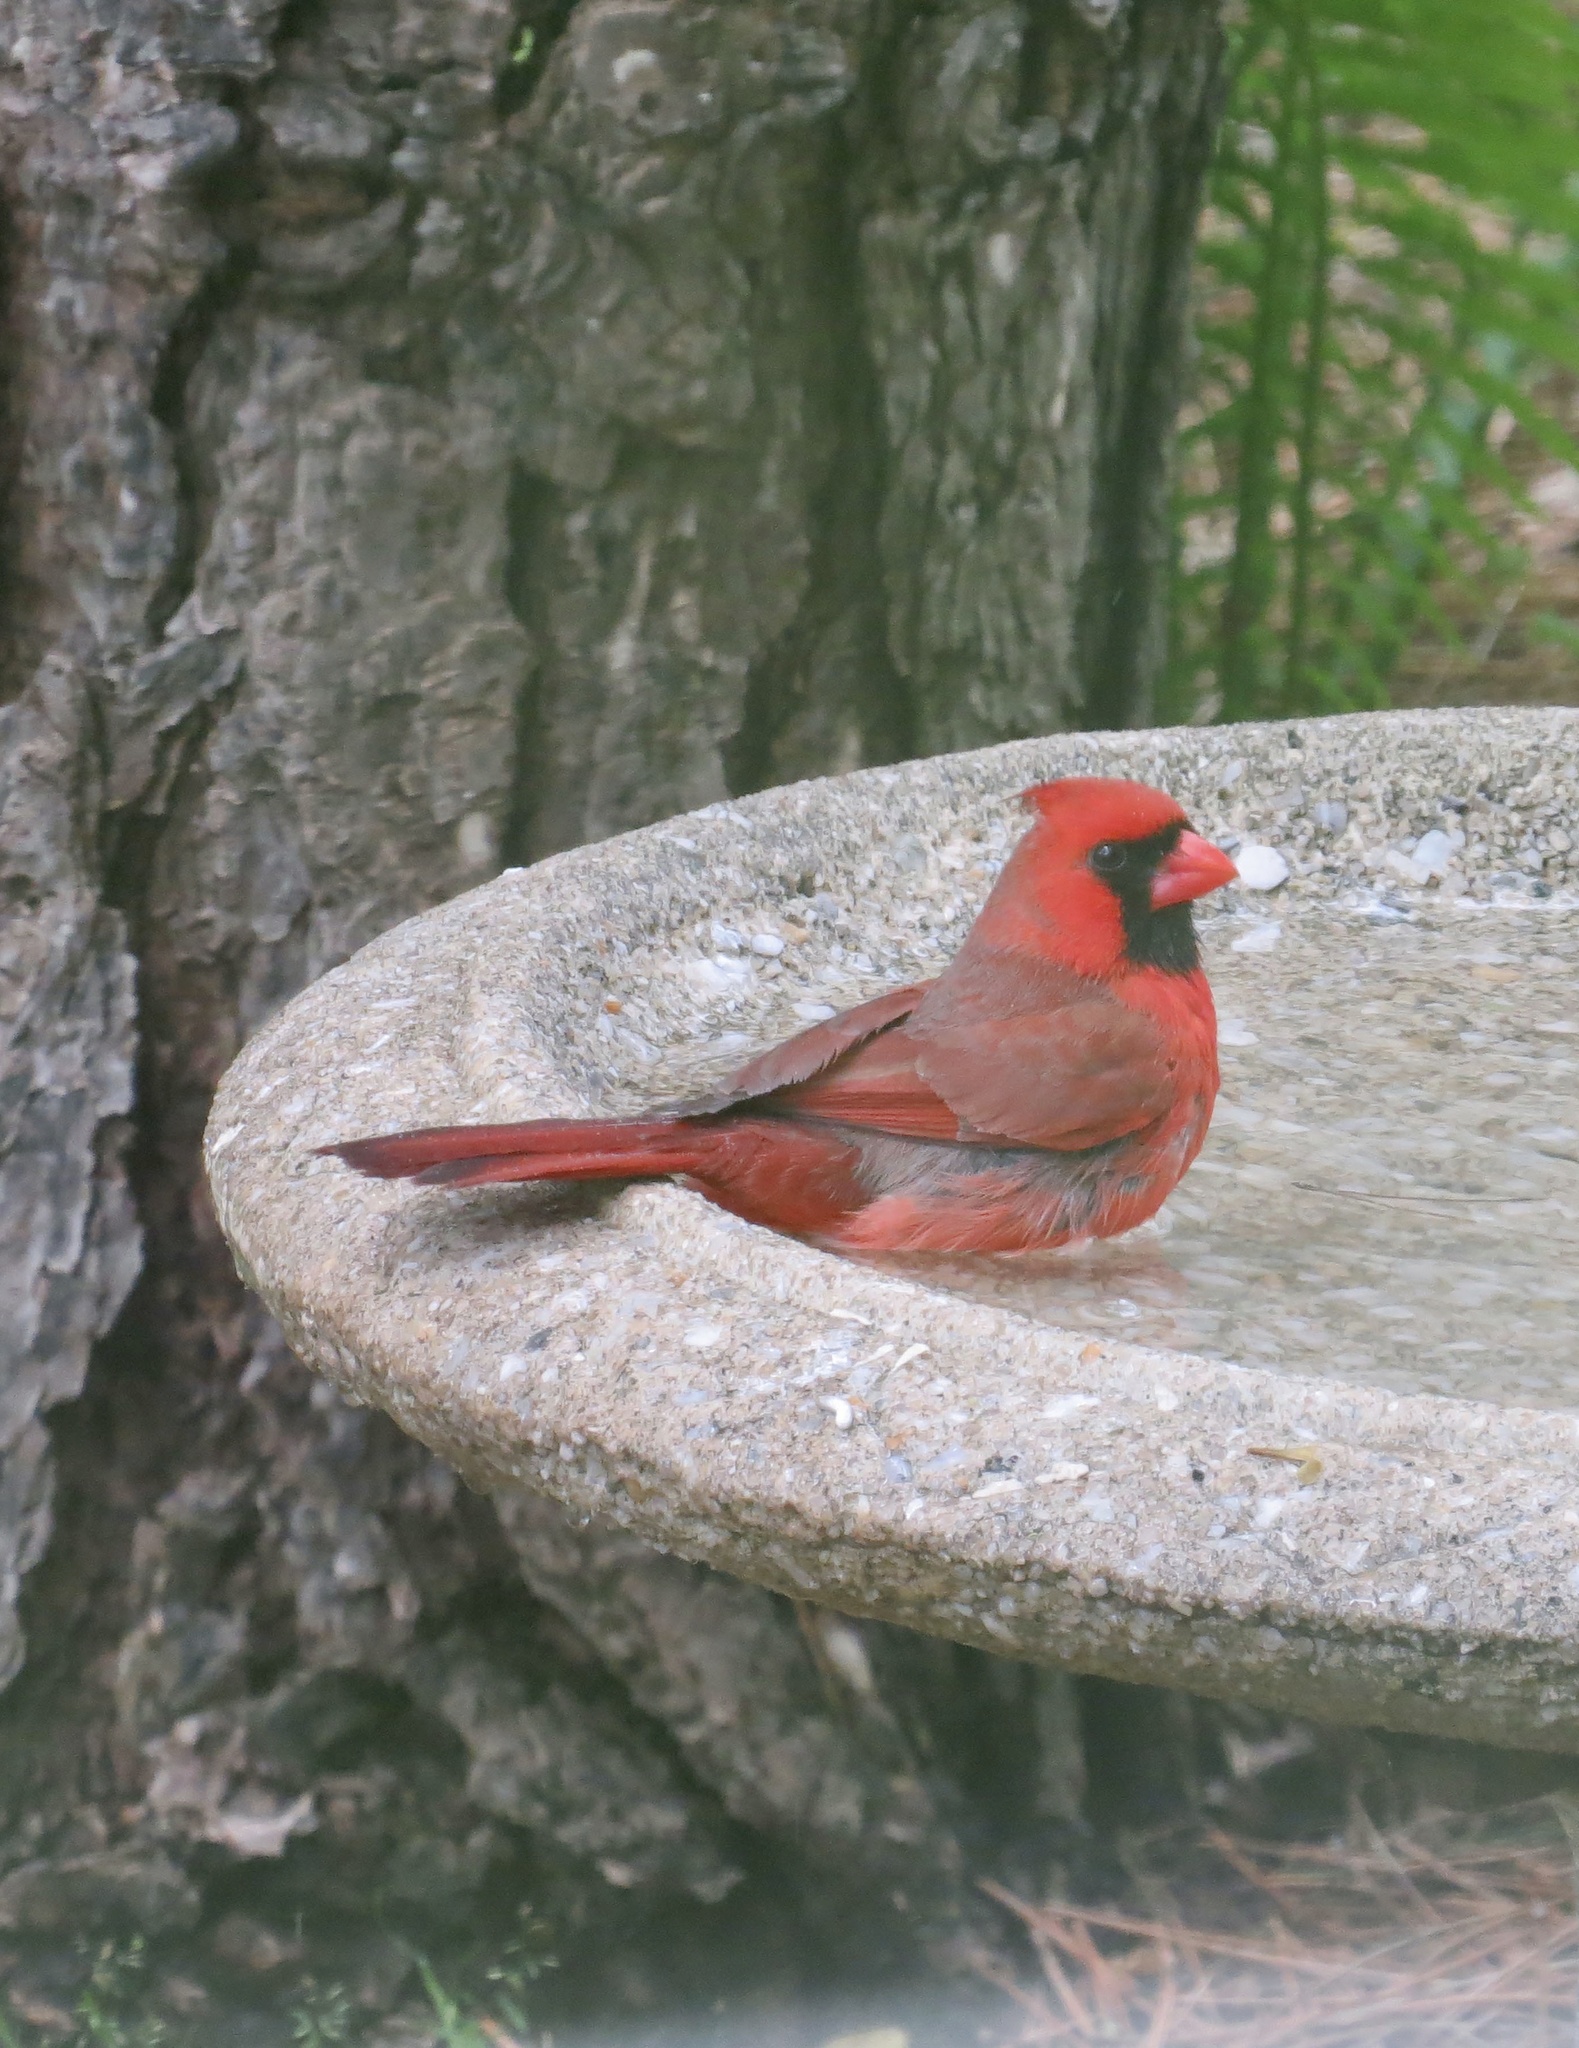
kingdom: Animalia
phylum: Chordata
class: Aves
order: Passeriformes
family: Cardinalidae
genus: Cardinalis
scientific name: Cardinalis cardinalis
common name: Northern cardinal
